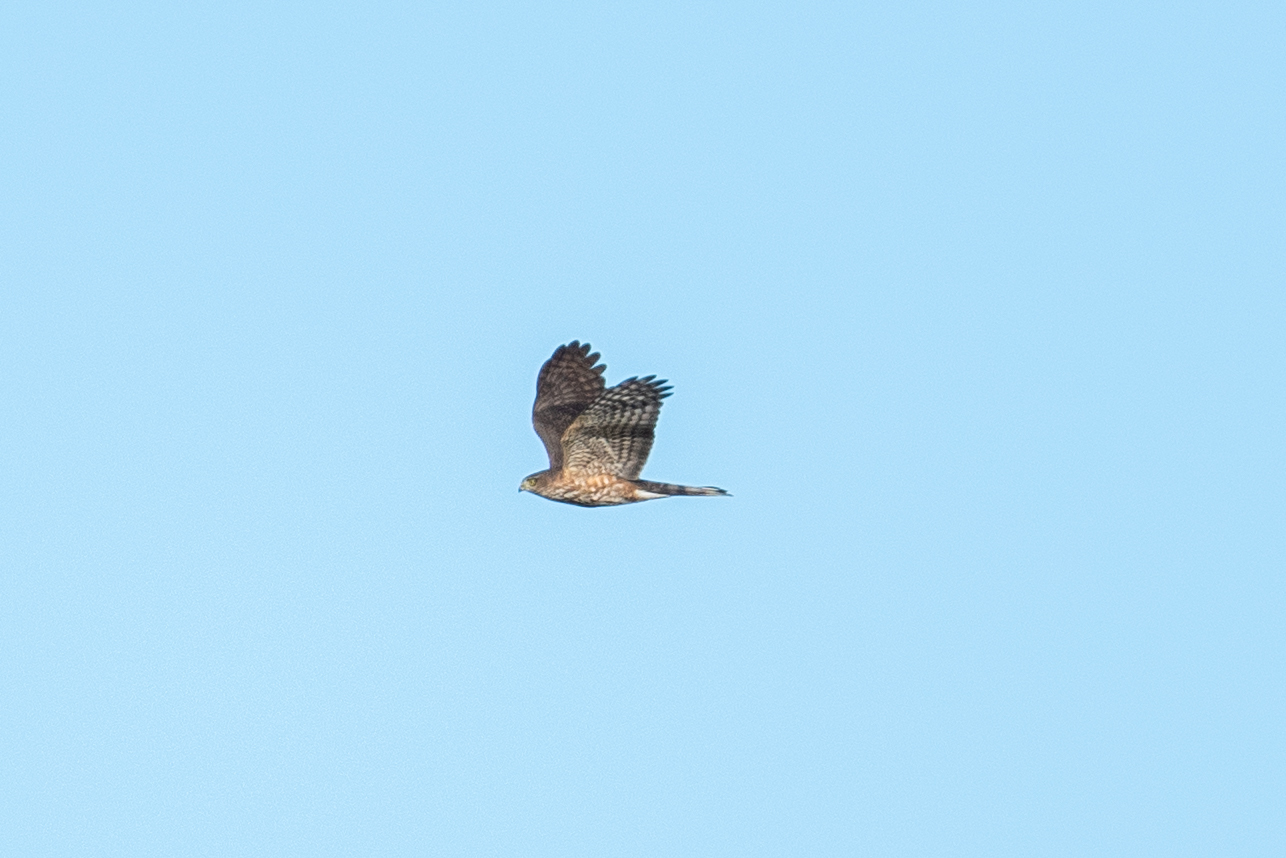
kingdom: Animalia
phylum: Chordata
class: Aves
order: Accipitriformes
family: Accipitridae
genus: Accipiter
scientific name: Accipiter striatus
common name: Sharp-shinned hawk
